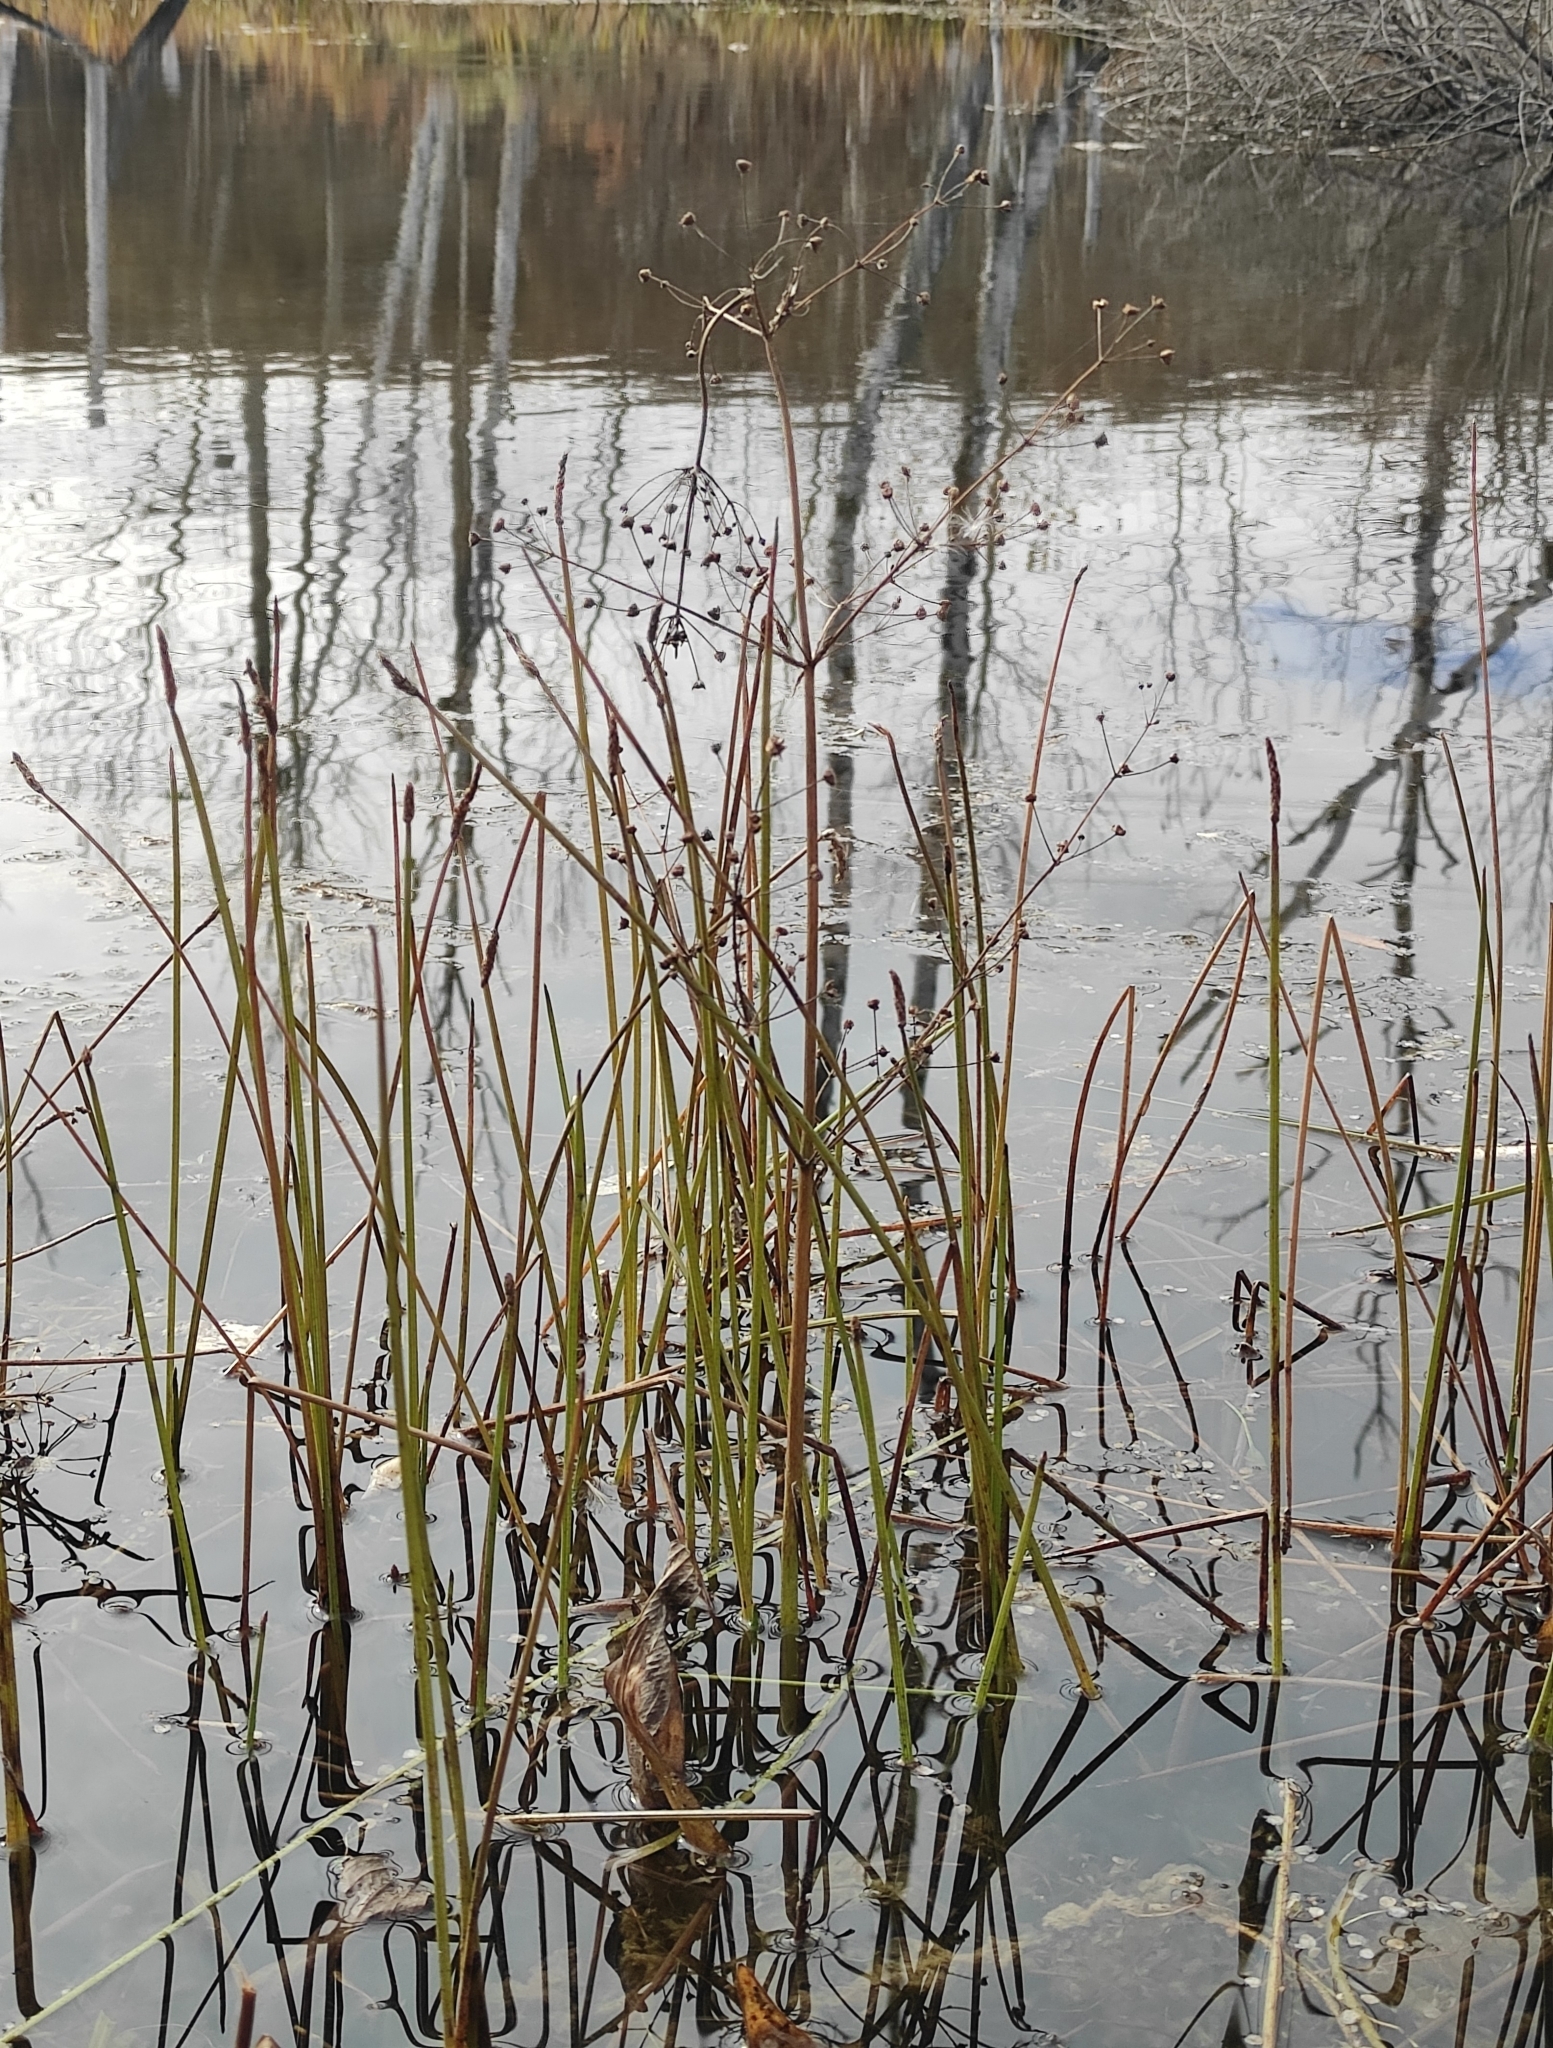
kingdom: Plantae
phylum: Tracheophyta
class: Liliopsida
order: Alismatales
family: Alismataceae
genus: Alisma
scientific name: Alisma plantago-aquatica
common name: Water-plantain
